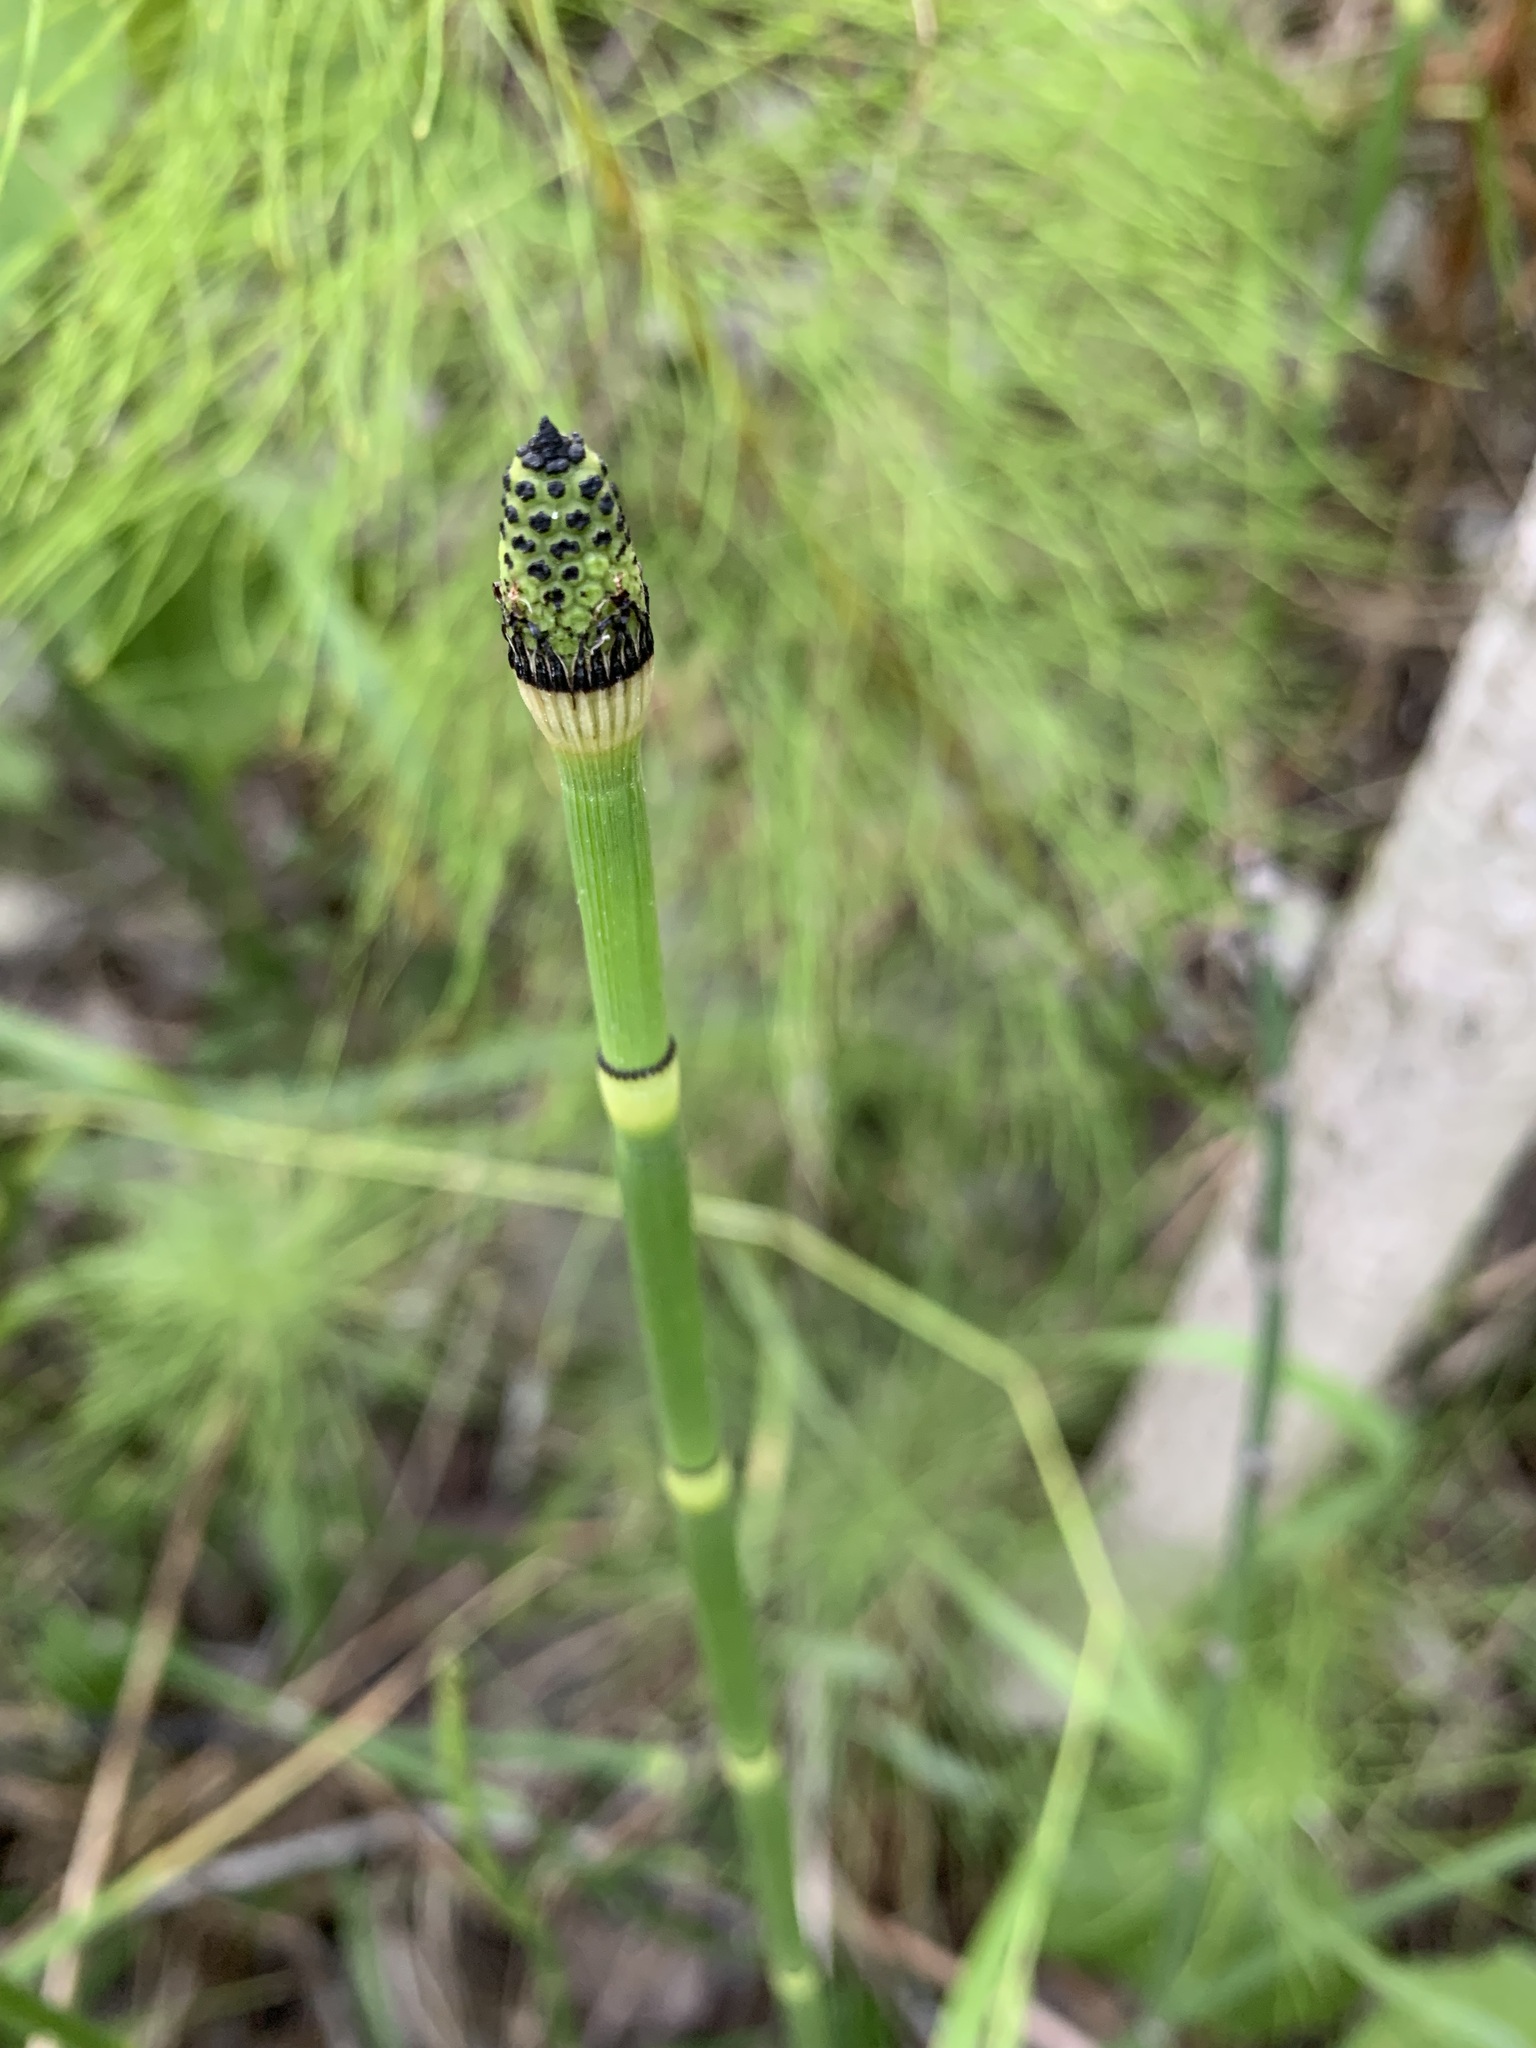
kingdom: Plantae
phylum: Tracheophyta
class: Polypodiopsida
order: Equisetales
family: Equisetaceae
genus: Equisetum
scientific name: Equisetum hyemale
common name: Rough horsetail
